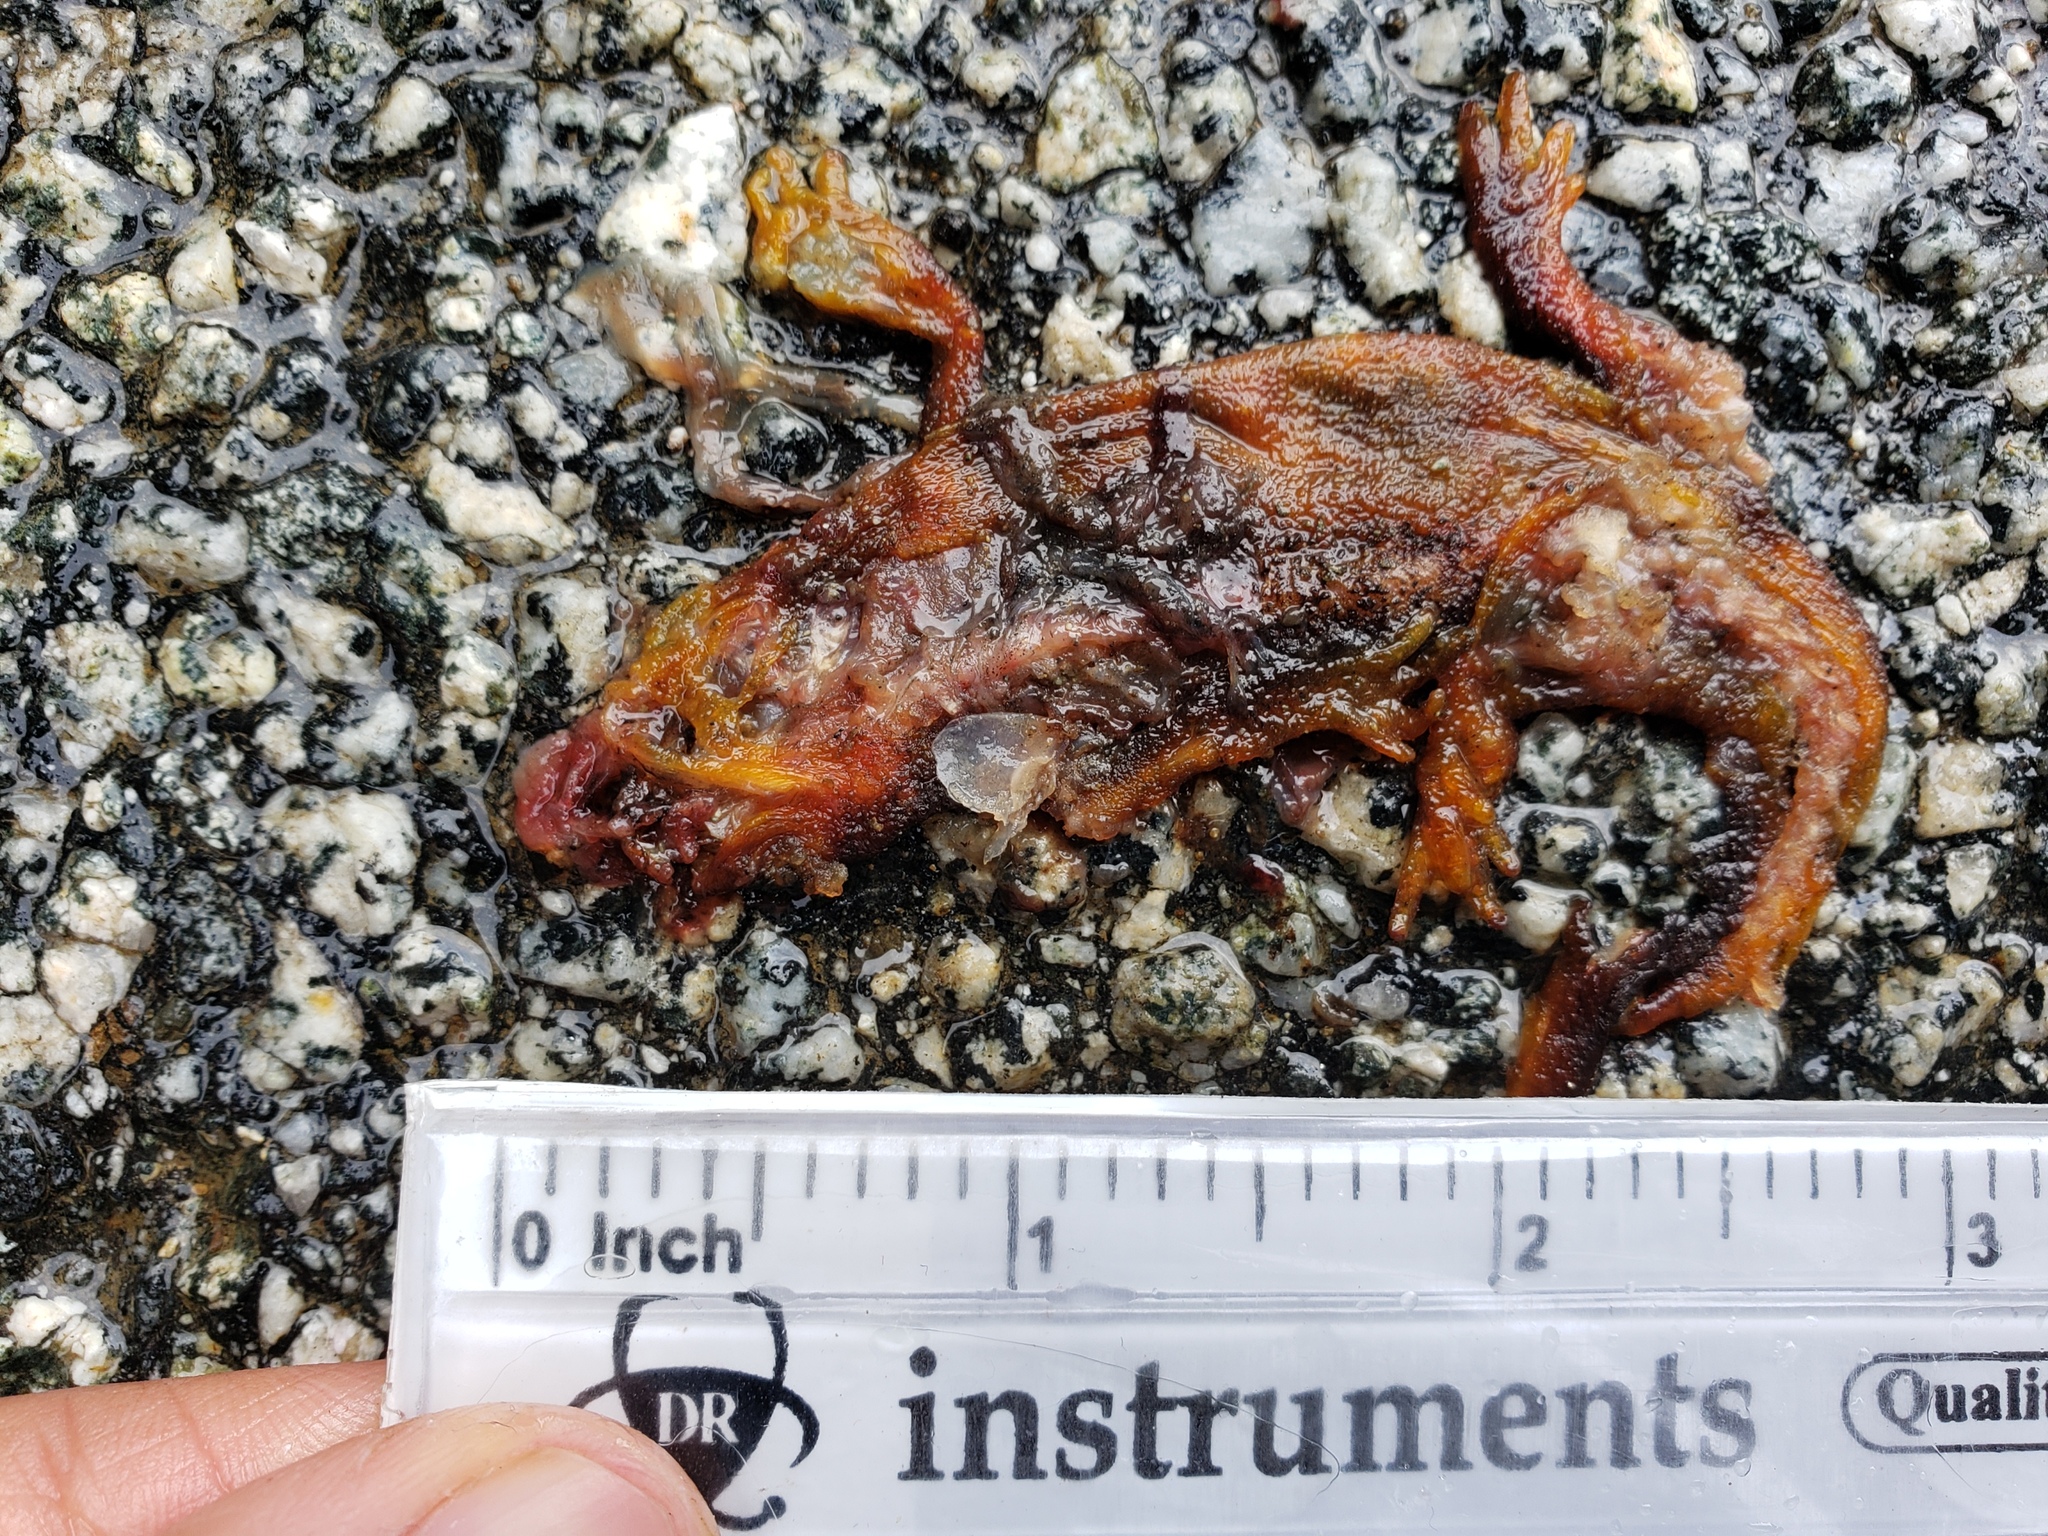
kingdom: Animalia
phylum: Chordata
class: Amphibia
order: Caudata
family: Salamandridae
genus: Taricha
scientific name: Taricha
